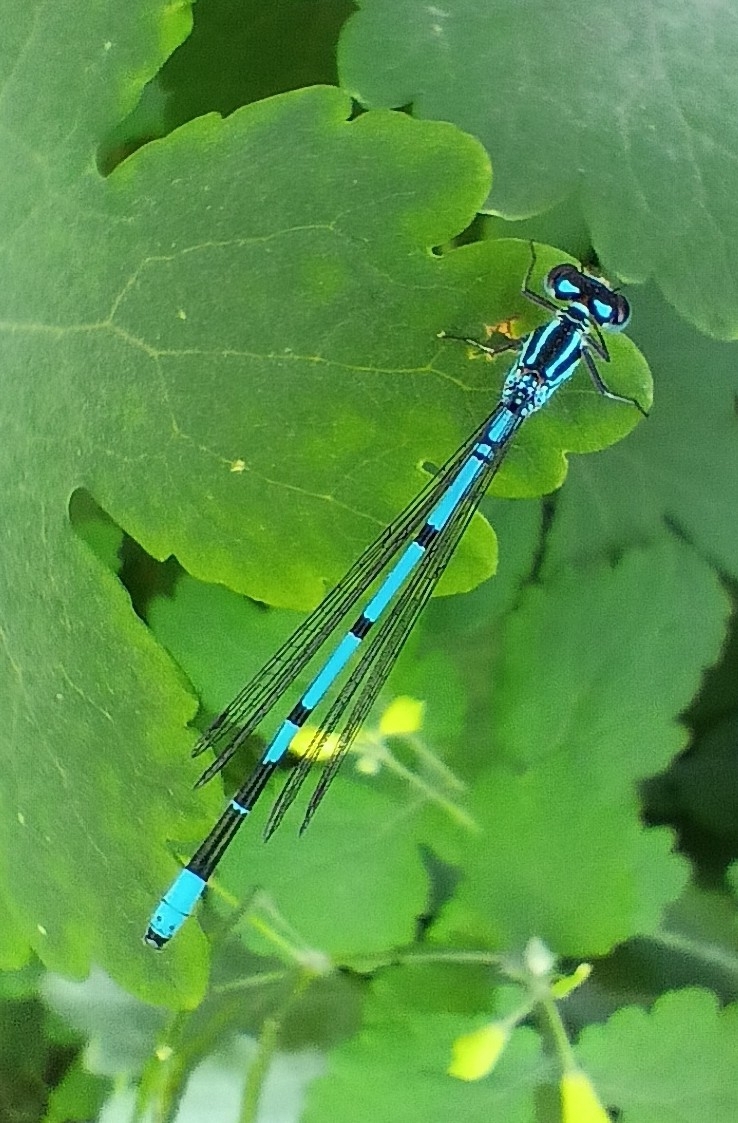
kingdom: Animalia
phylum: Arthropoda
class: Insecta
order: Odonata
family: Coenagrionidae
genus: Coenagrion
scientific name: Coenagrion puella
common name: Azure damselfly
